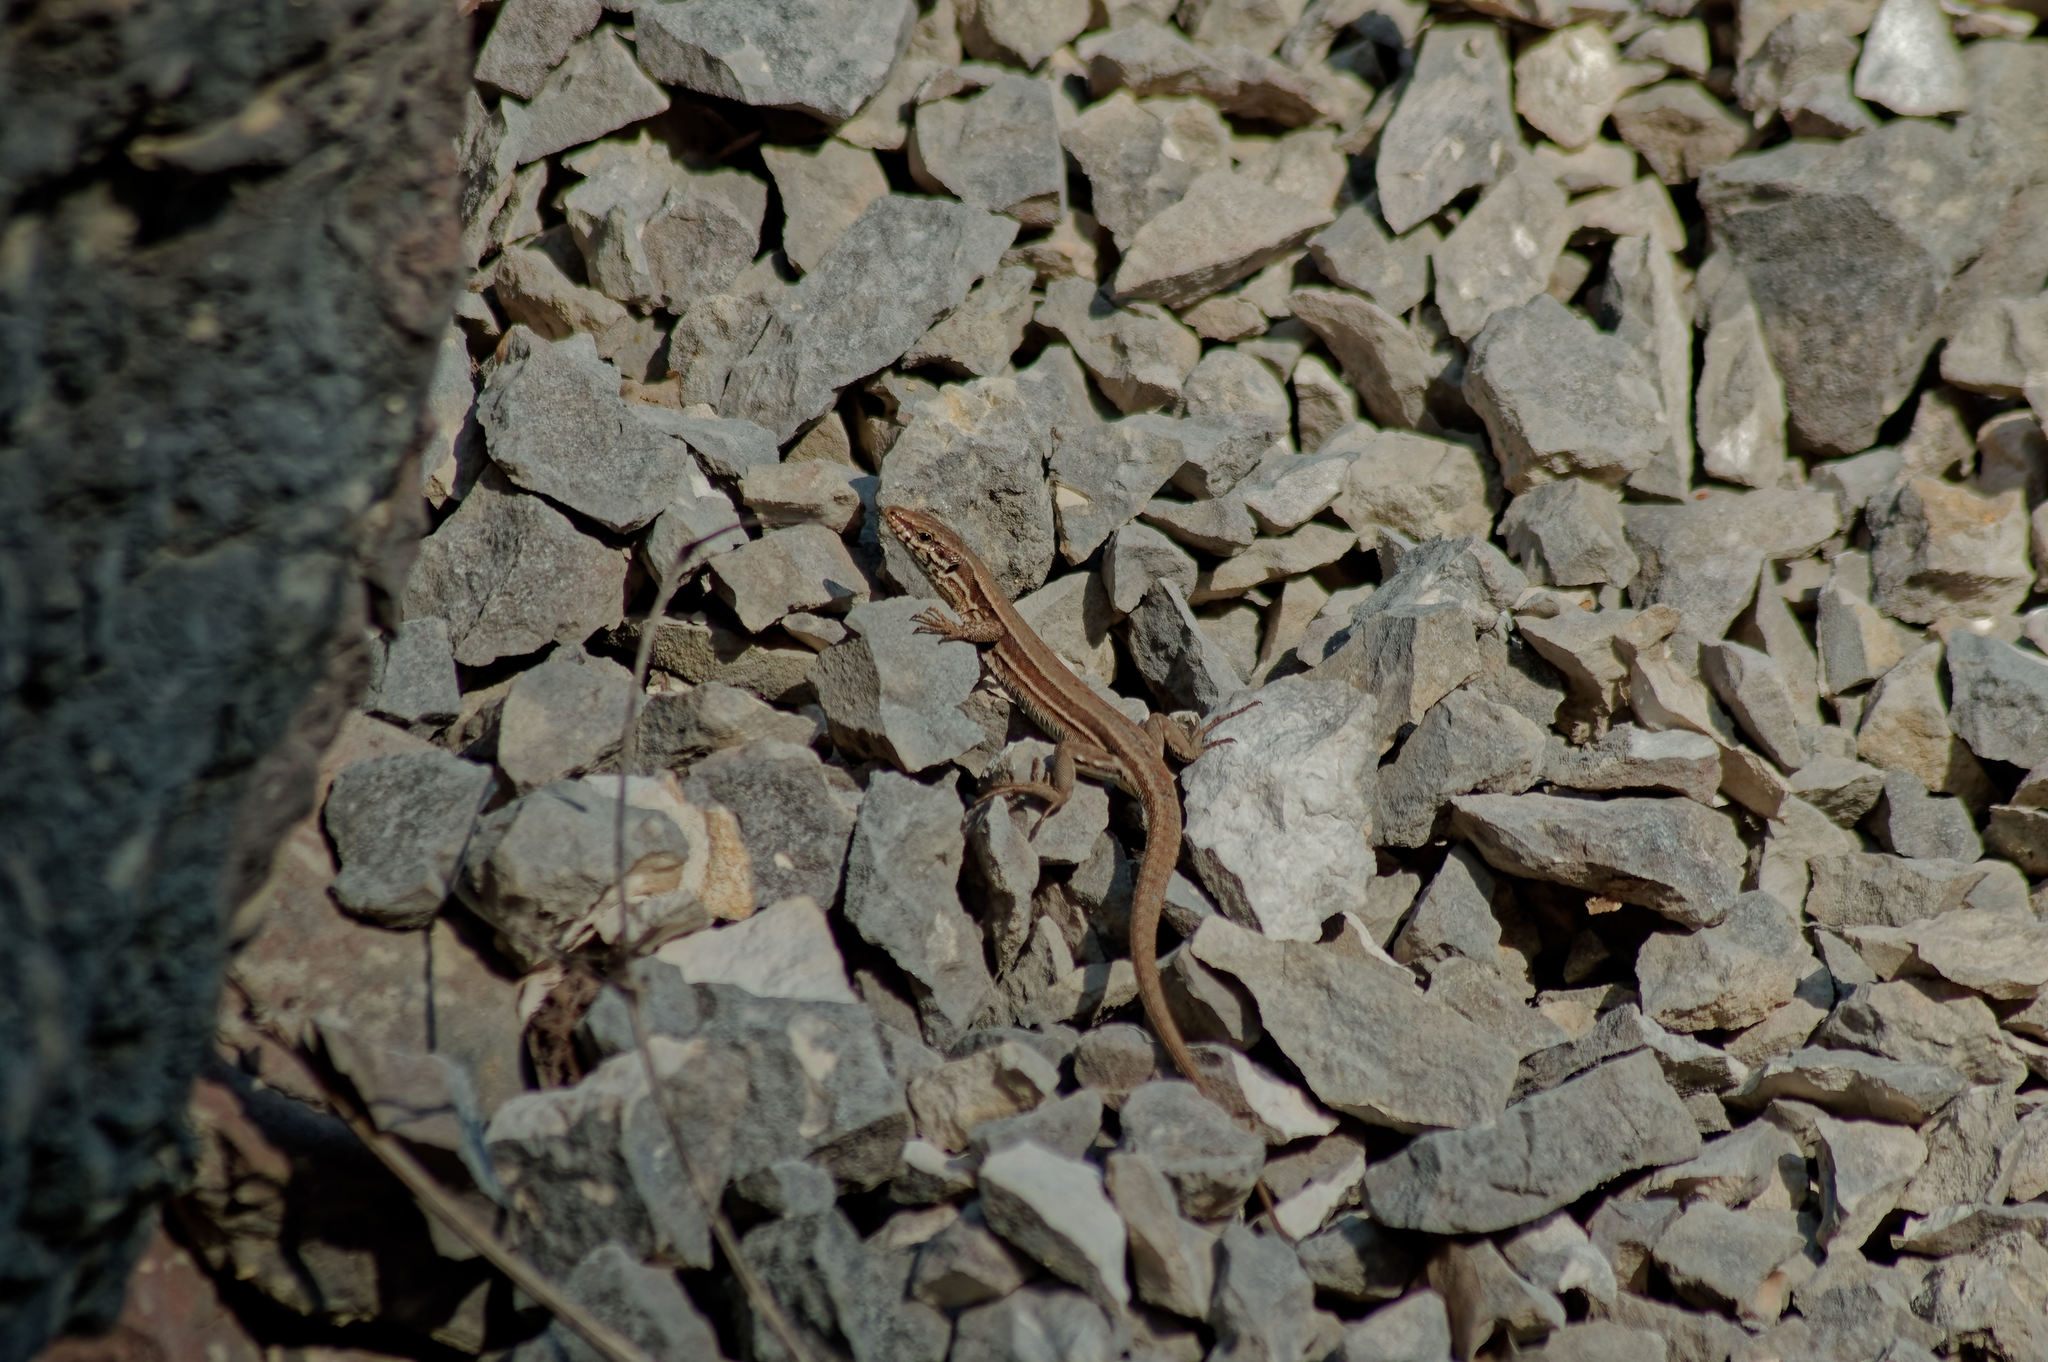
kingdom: Animalia
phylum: Chordata
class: Squamata
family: Lacertidae
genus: Podarcis
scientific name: Podarcis muralis
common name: Common wall lizard
